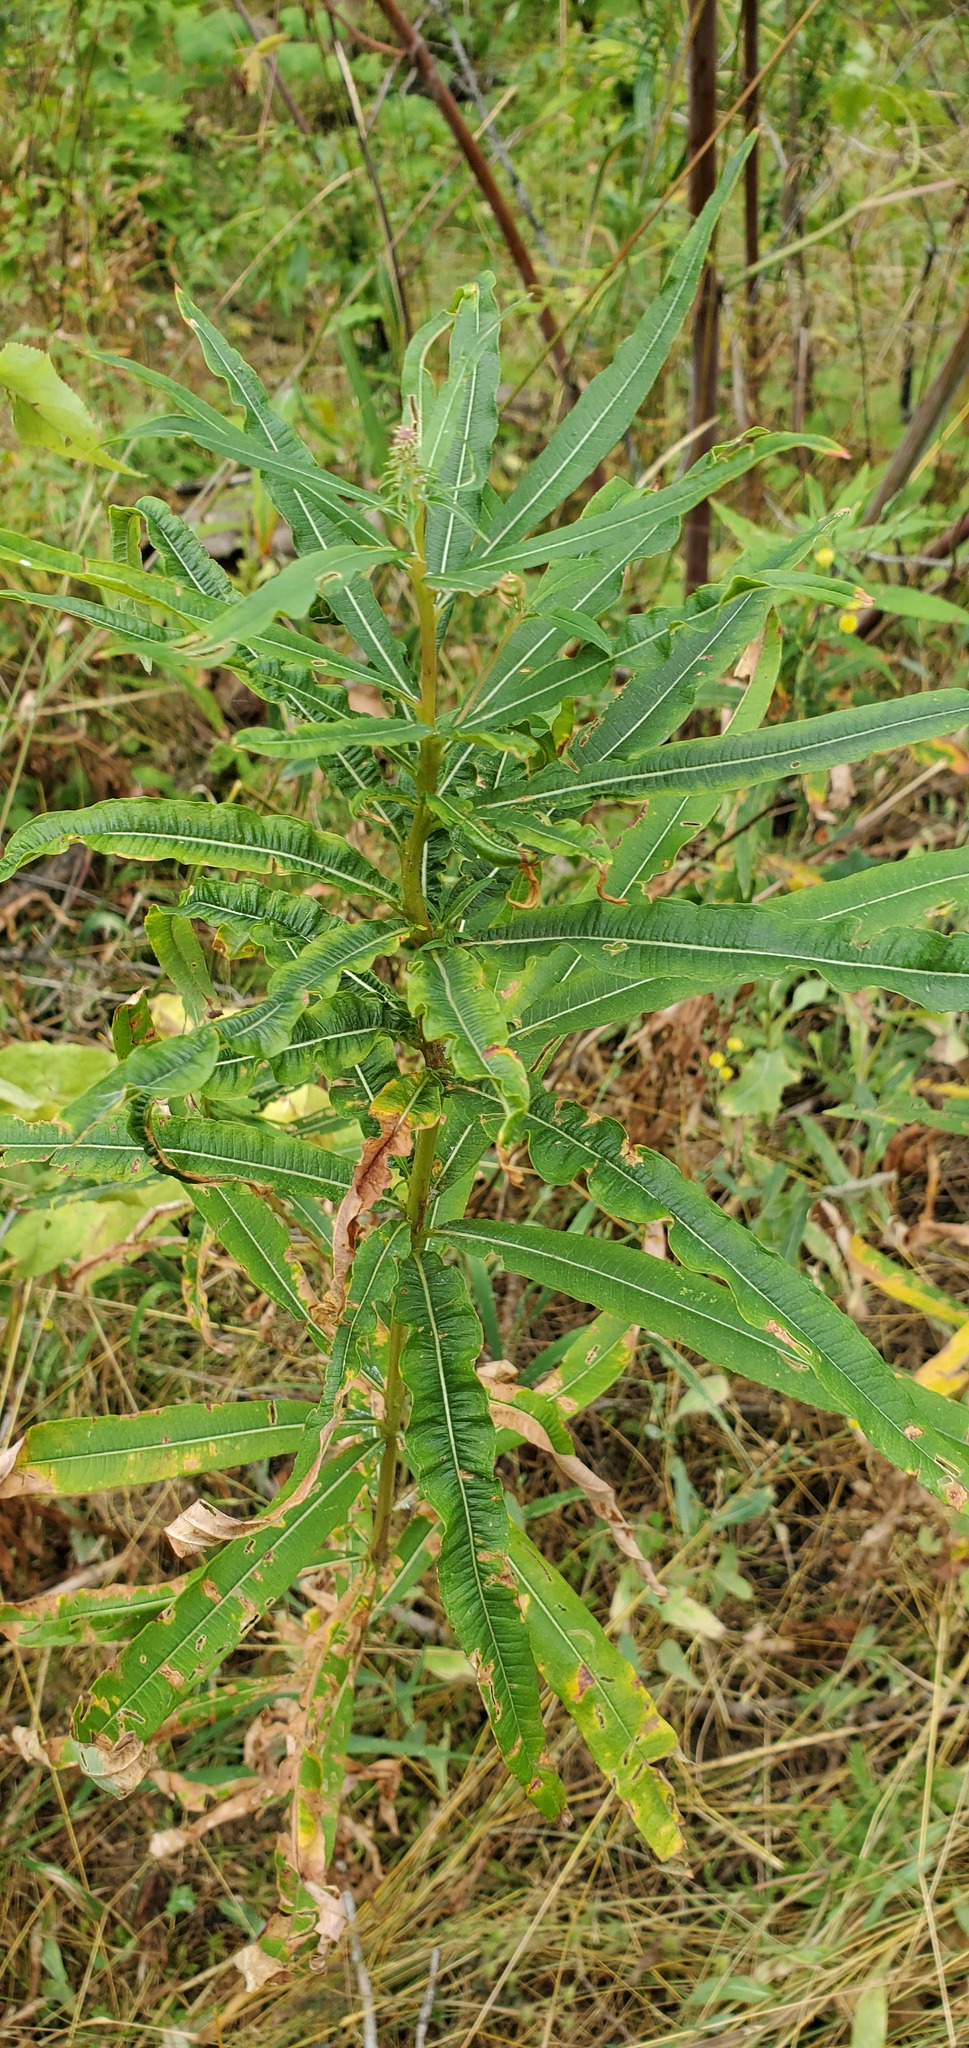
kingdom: Plantae
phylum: Tracheophyta
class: Magnoliopsida
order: Myrtales
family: Onagraceae
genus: Chamaenerion
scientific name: Chamaenerion angustifolium
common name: Fireweed
